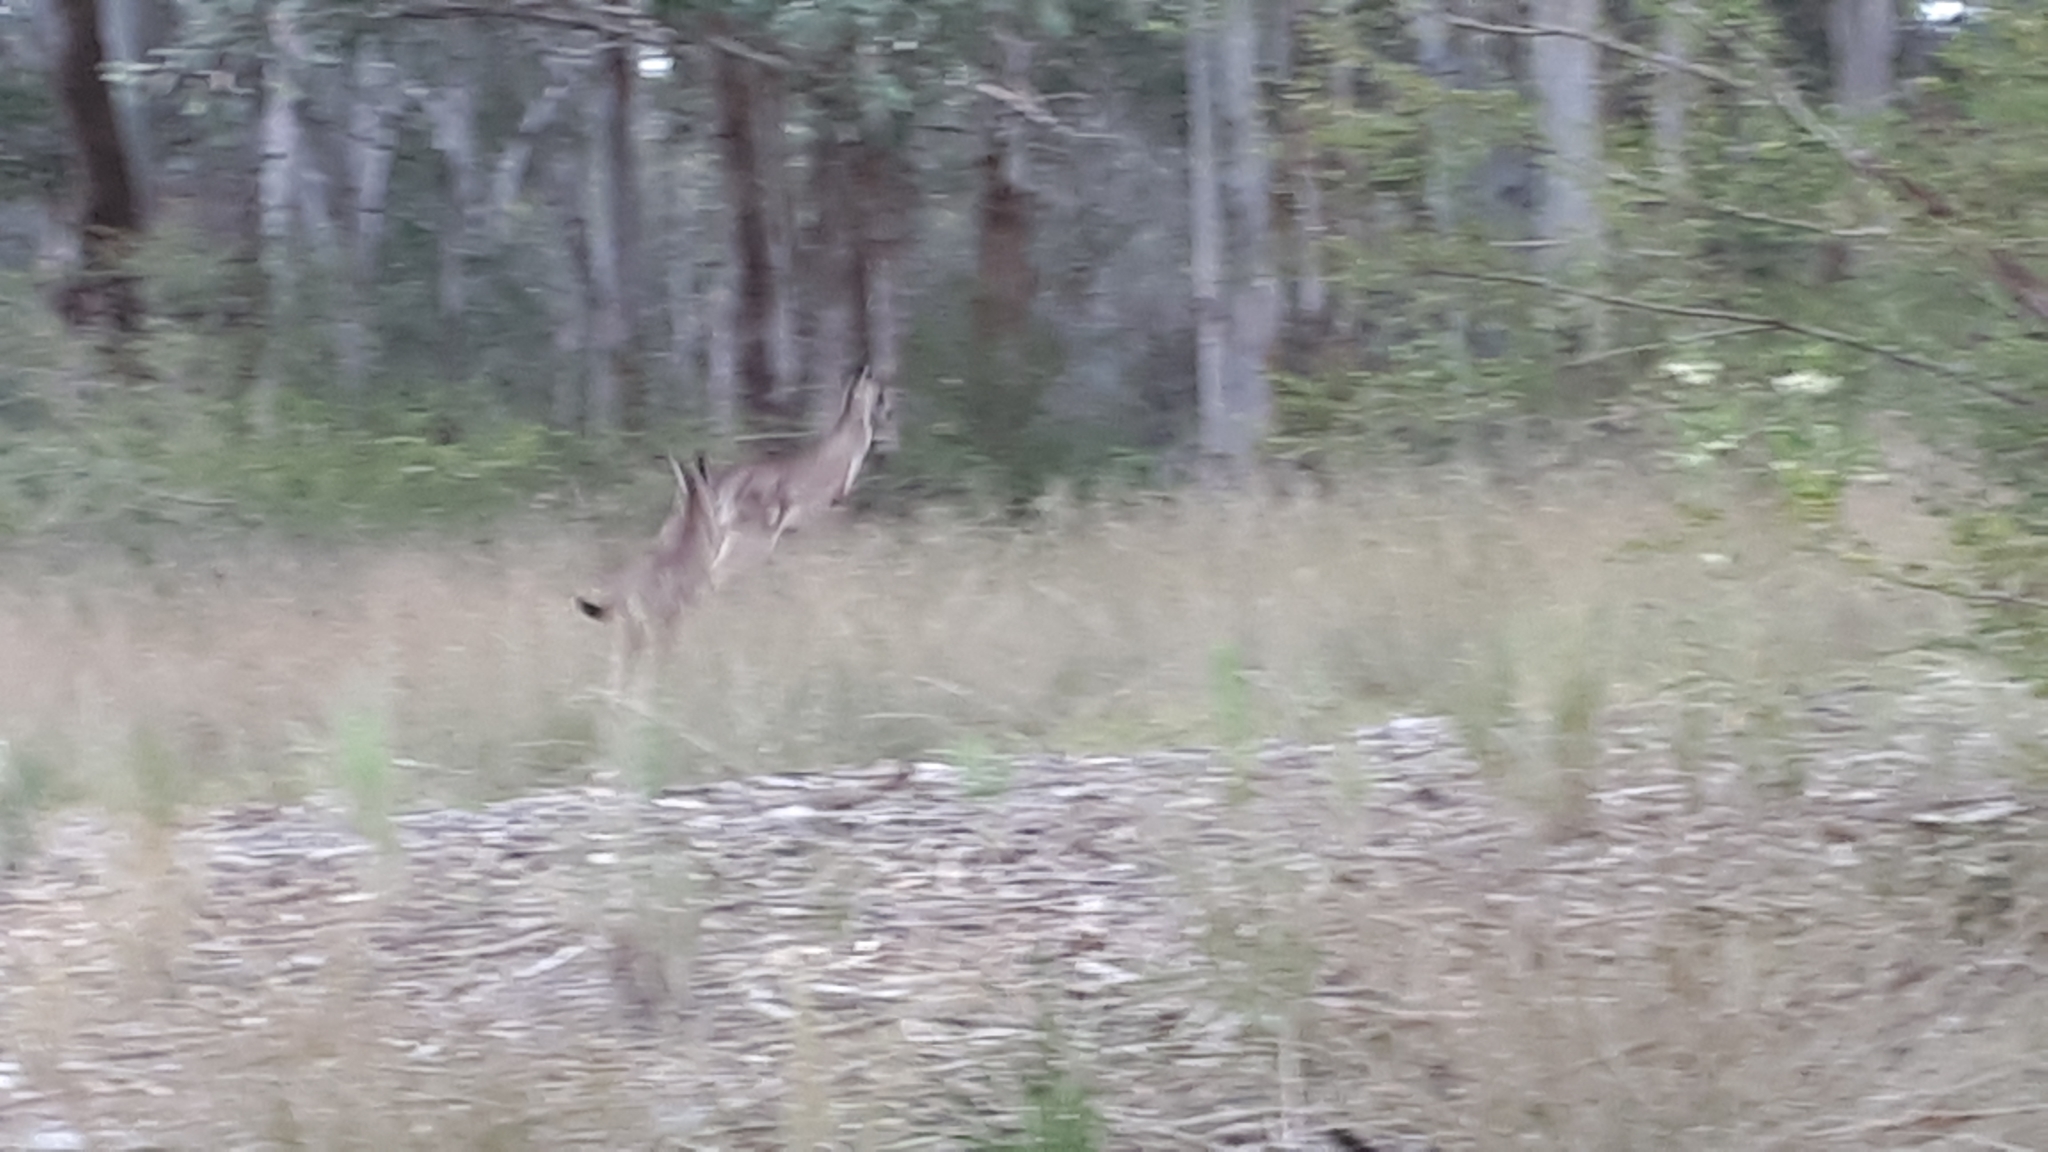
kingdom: Animalia
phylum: Chordata
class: Mammalia
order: Diprotodontia
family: Macropodidae
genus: Macropus
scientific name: Macropus giganteus
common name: Eastern grey kangaroo
